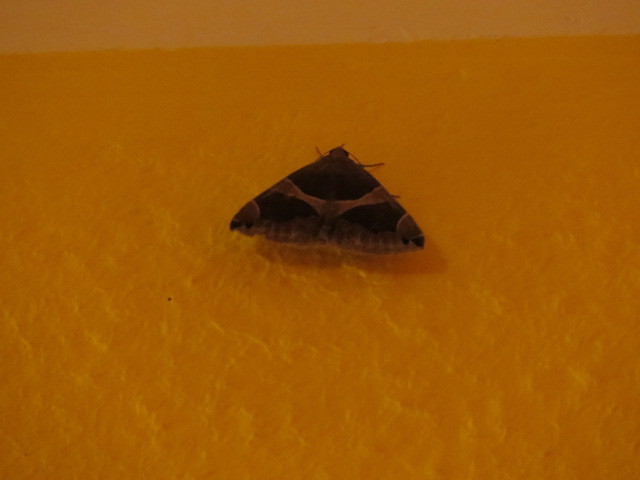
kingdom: Animalia
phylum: Arthropoda
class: Insecta
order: Lepidoptera
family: Erebidae
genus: Dysgonia
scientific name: Dysgonia algira
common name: Passenger
